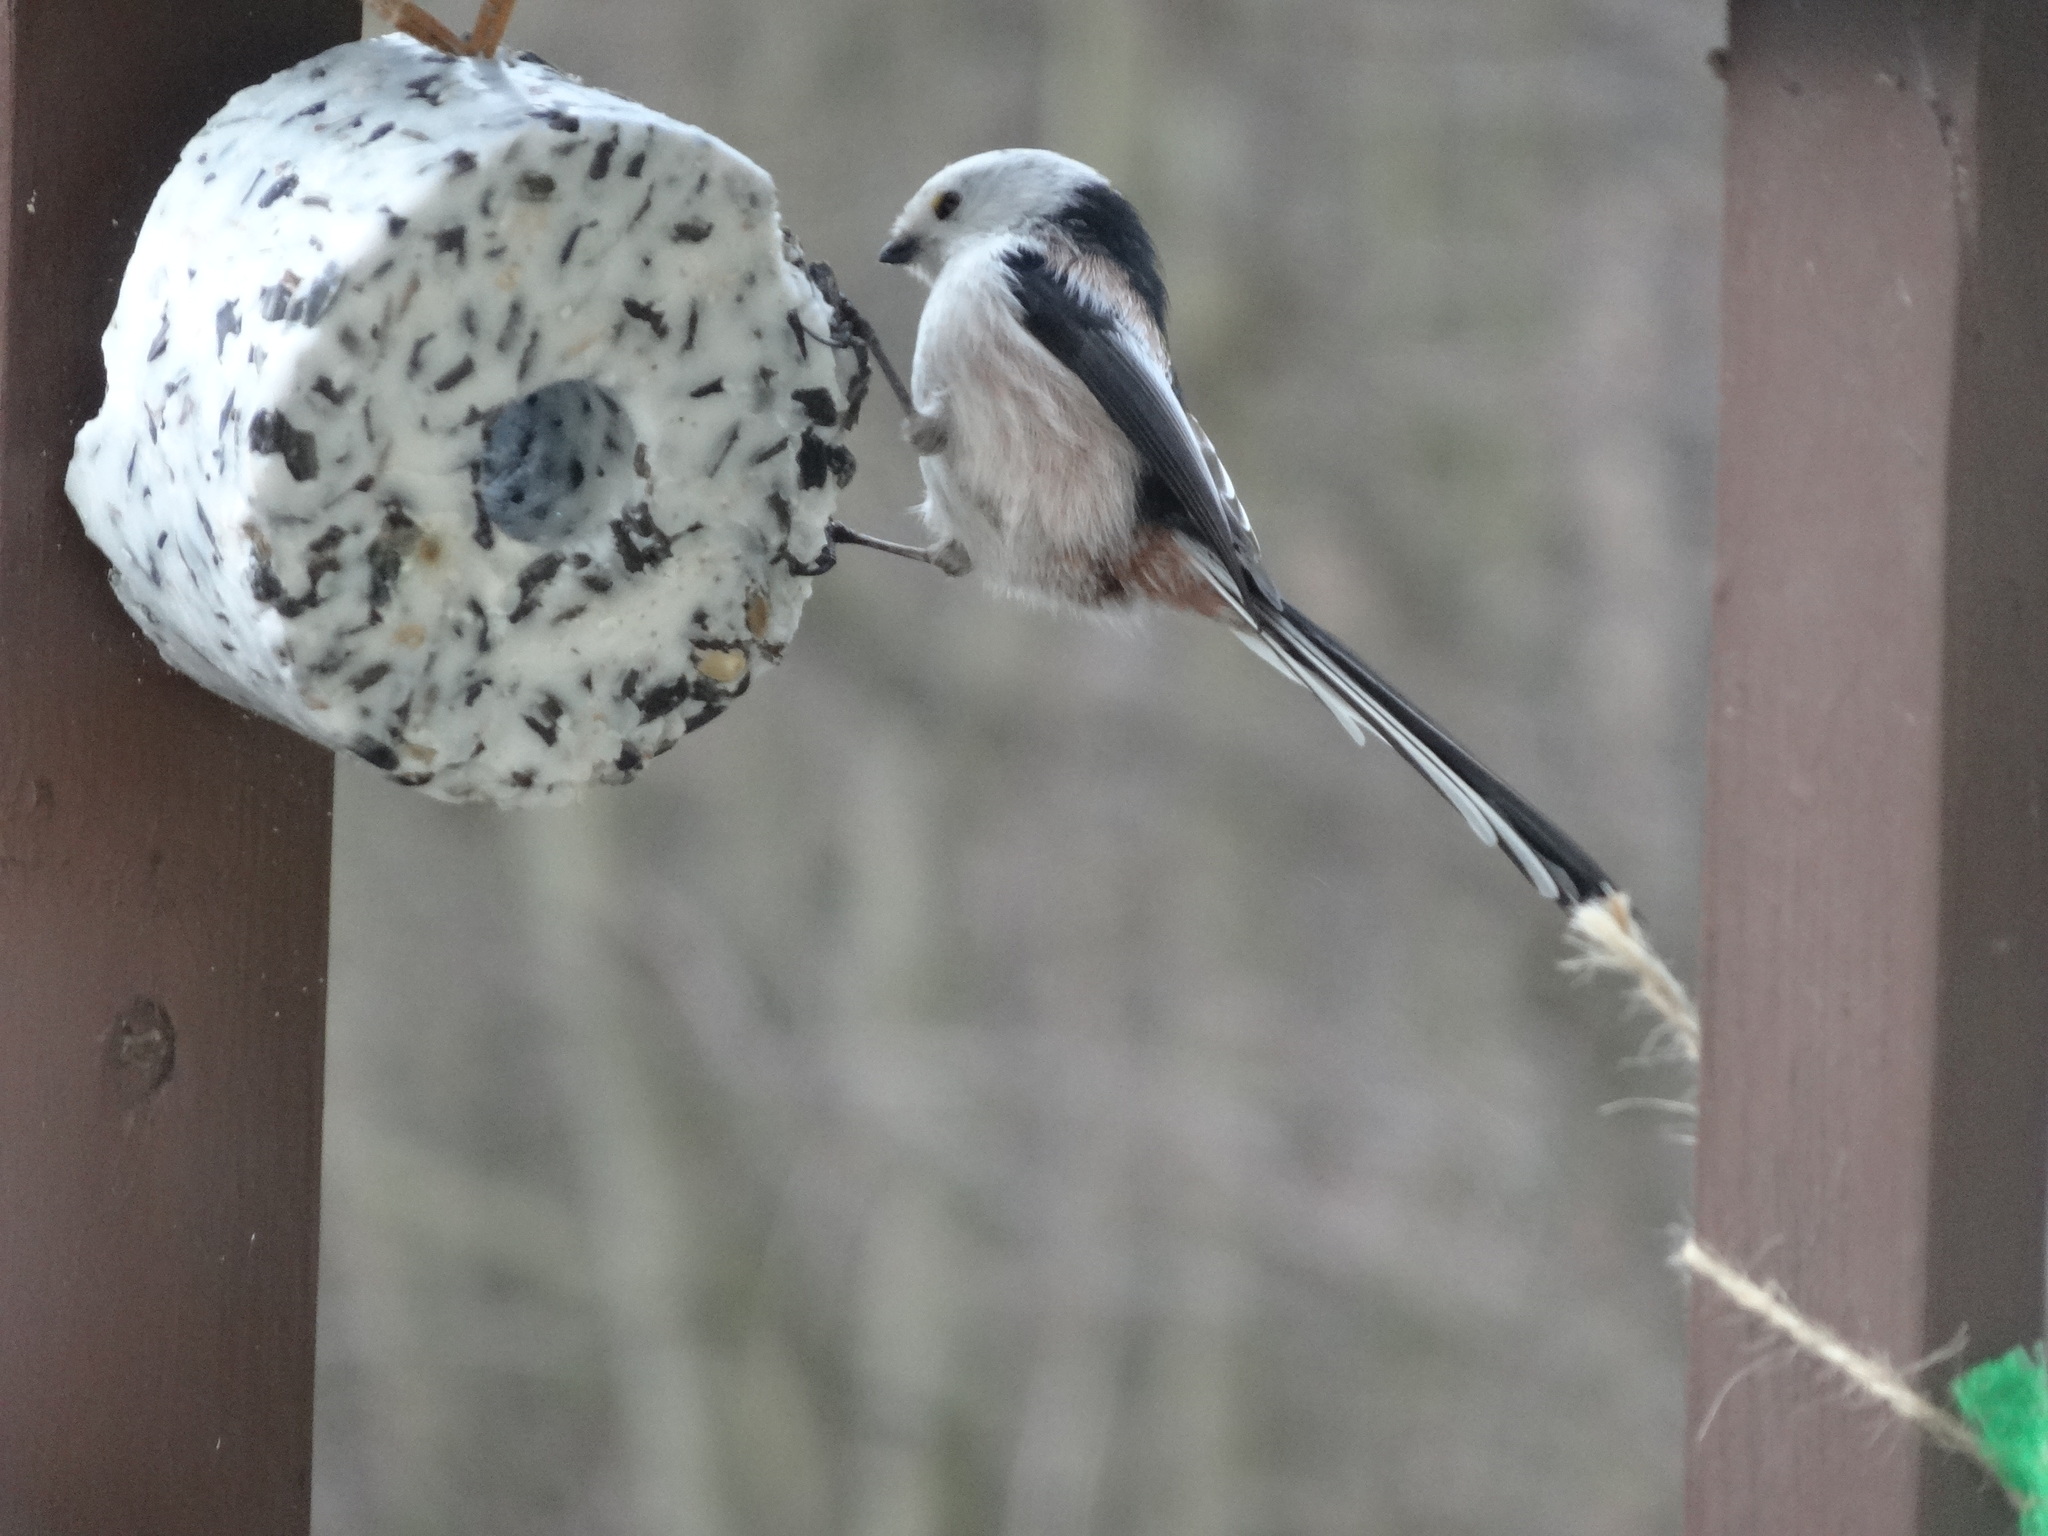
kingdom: Animalia
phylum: Chordata
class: Aves
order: Passeriformes
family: Aegithalidae
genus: Aegithalos
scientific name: Aegithalos caudatus
